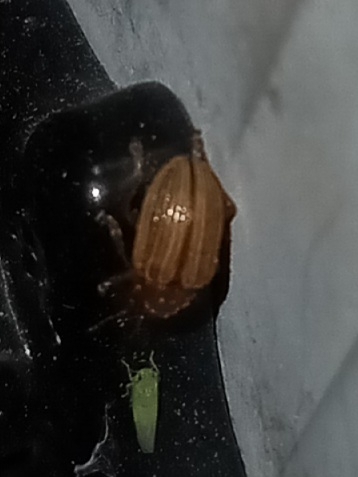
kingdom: Animalia
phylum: Arthropoda
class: Insecta
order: Coleoptera
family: Chrysomelidae
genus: Colaspis
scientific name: Colaspis brunnea
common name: Grape colaspis
